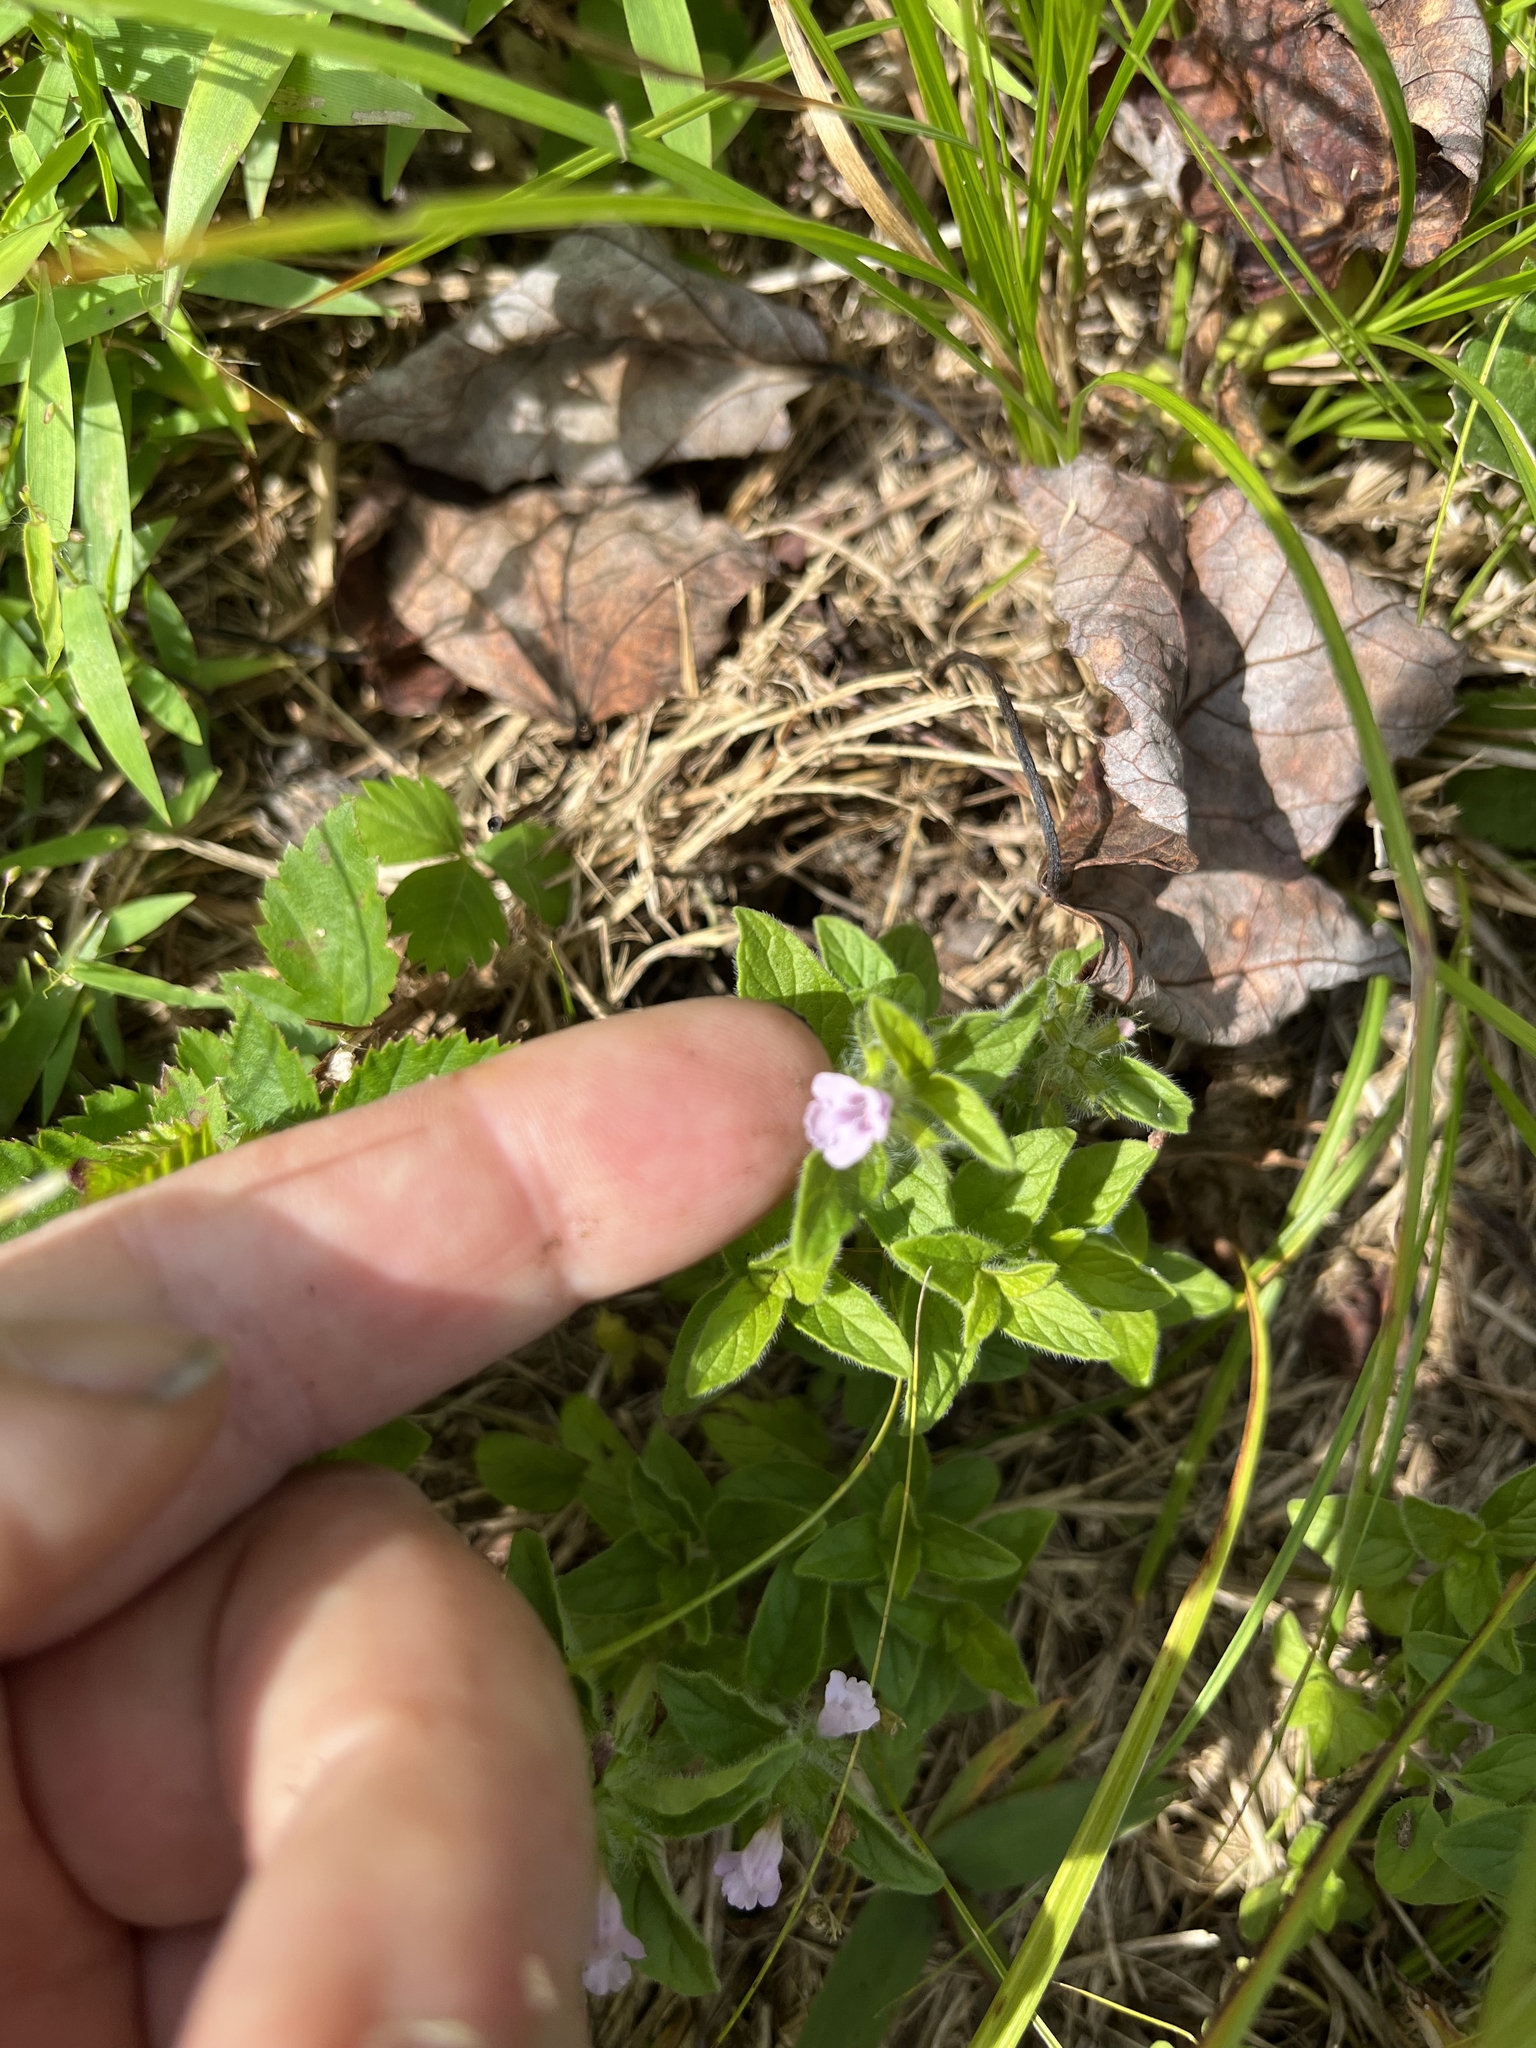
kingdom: Plantae
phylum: Tracheophyta
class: Magnoliopsida
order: Lamiales
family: Lamiaceae
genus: Clinopodium
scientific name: Clinopodium vulgare
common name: Wild basil
